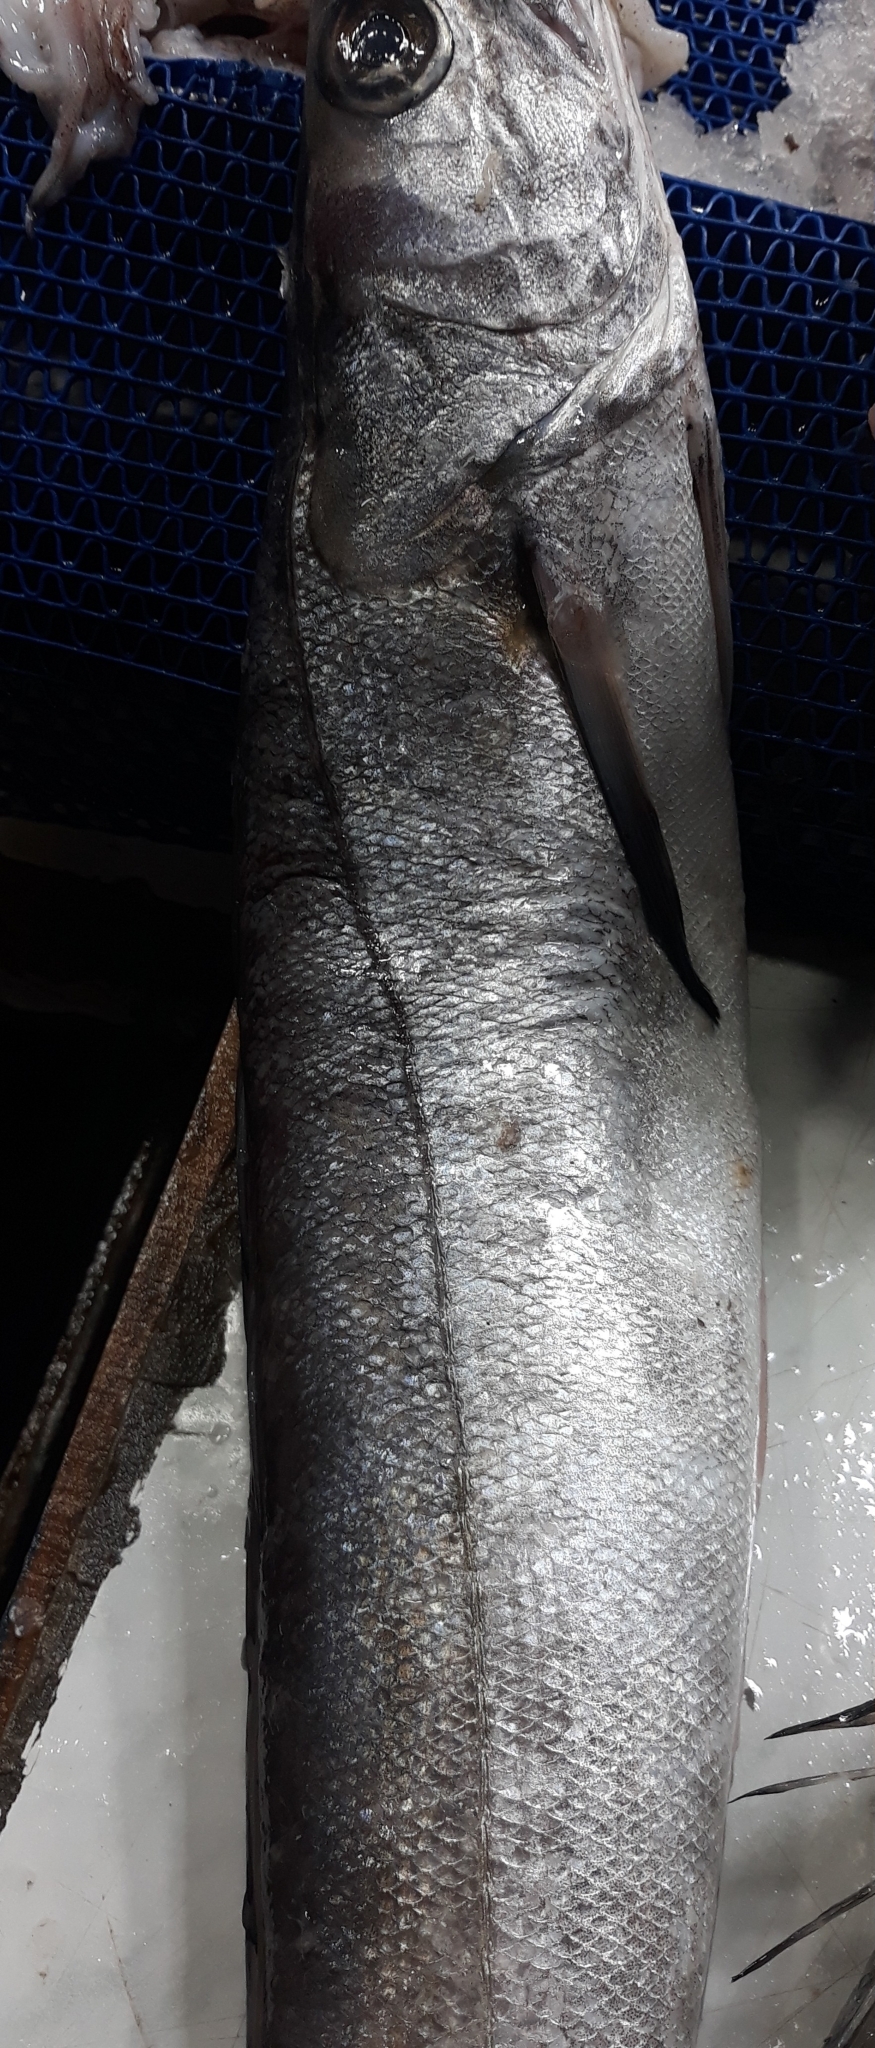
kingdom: Animalia
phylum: Chordata
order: Gadiformes
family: Merlucciidae
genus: Merluccius
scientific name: Merluccius merluccius
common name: European hake
